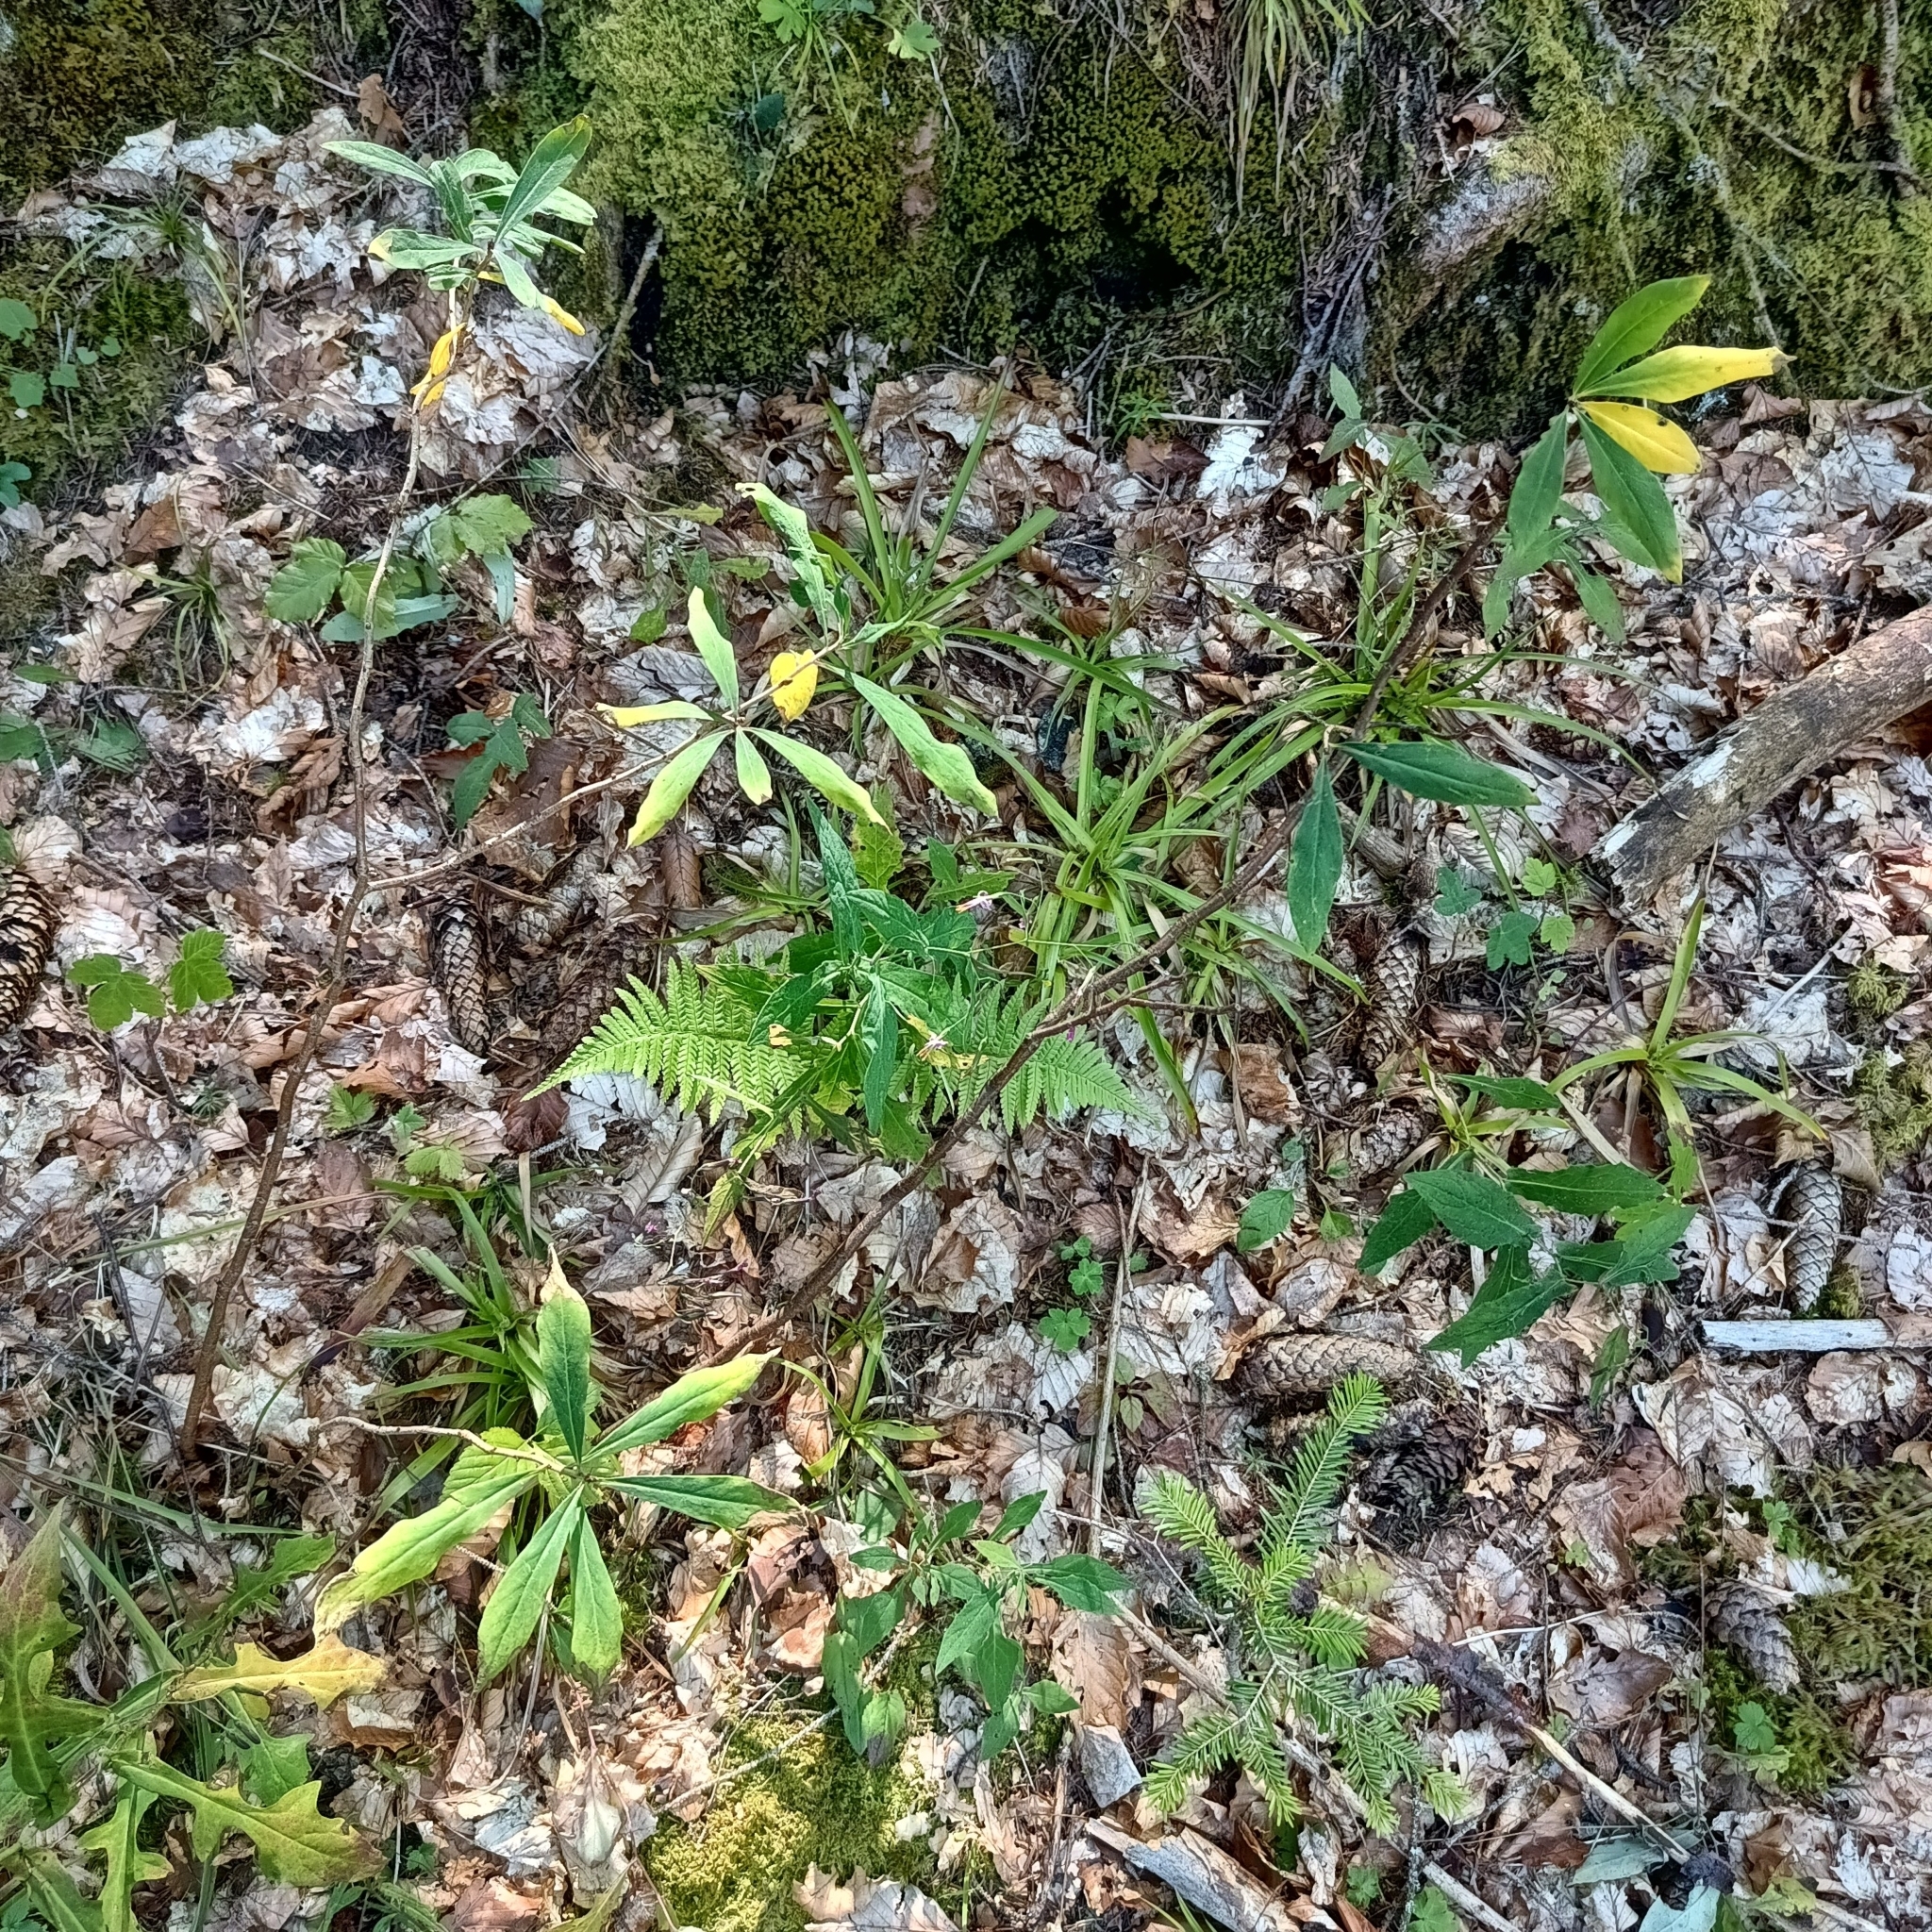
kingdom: Plantae
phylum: Tracheophyta
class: Magnoliopsida
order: Malvales
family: Thymelaeaceae
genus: Daphne
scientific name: Daphne mezereum
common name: Mezereon
